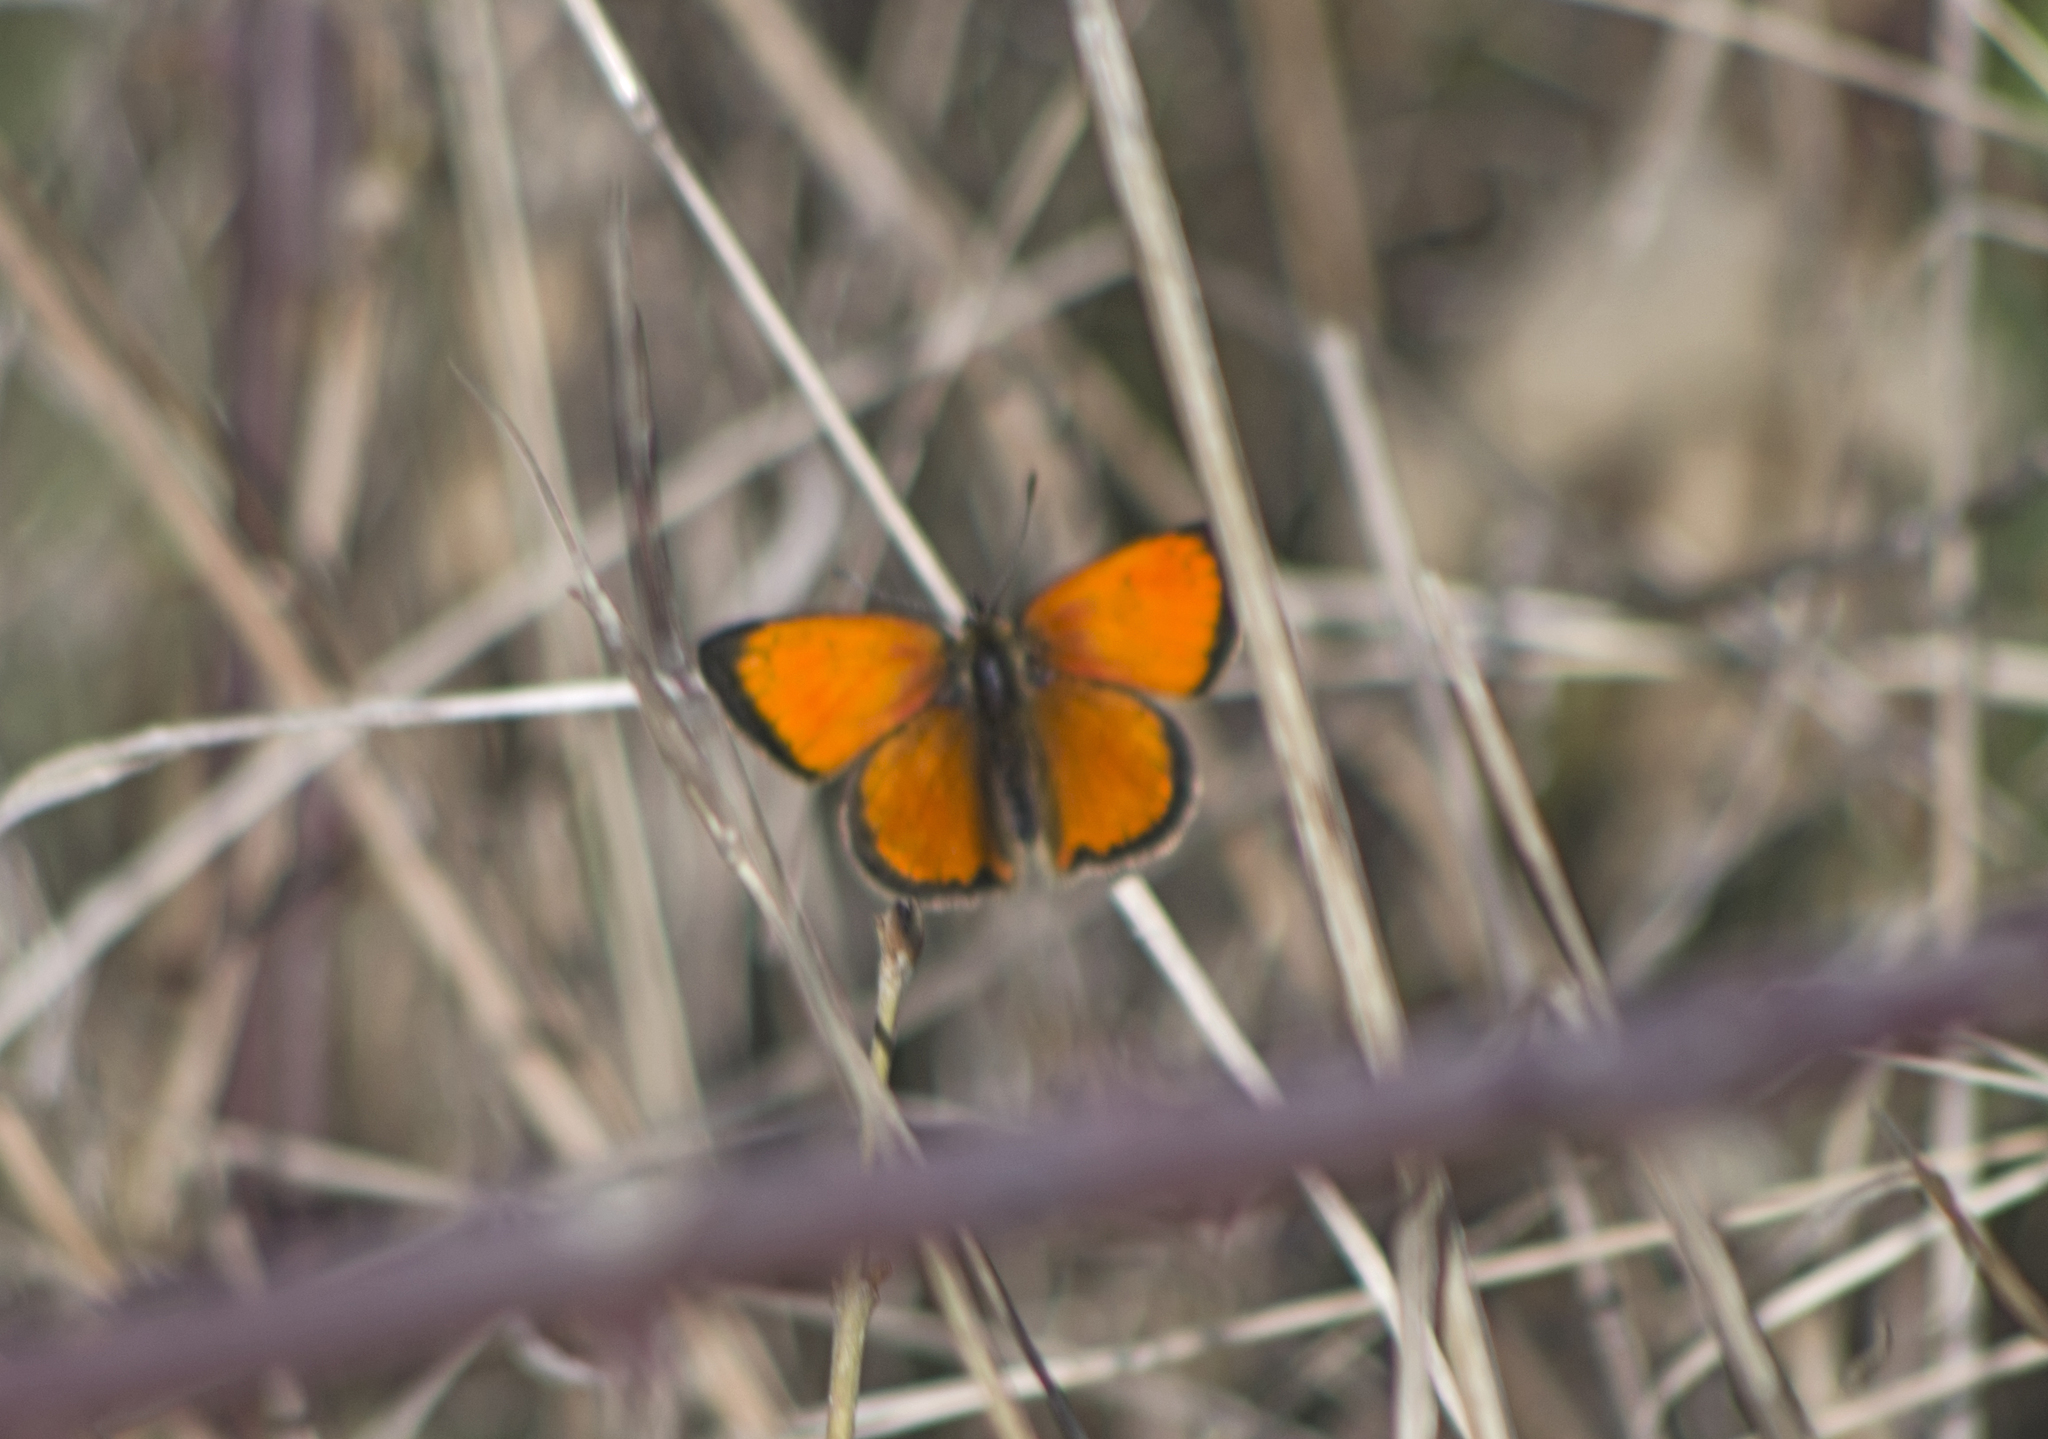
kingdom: Animalia
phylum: Arthropoda
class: Insecta
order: Lepidoptera
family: Lycaenidae
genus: Polyommatus
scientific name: Polyommatus ottomanus
